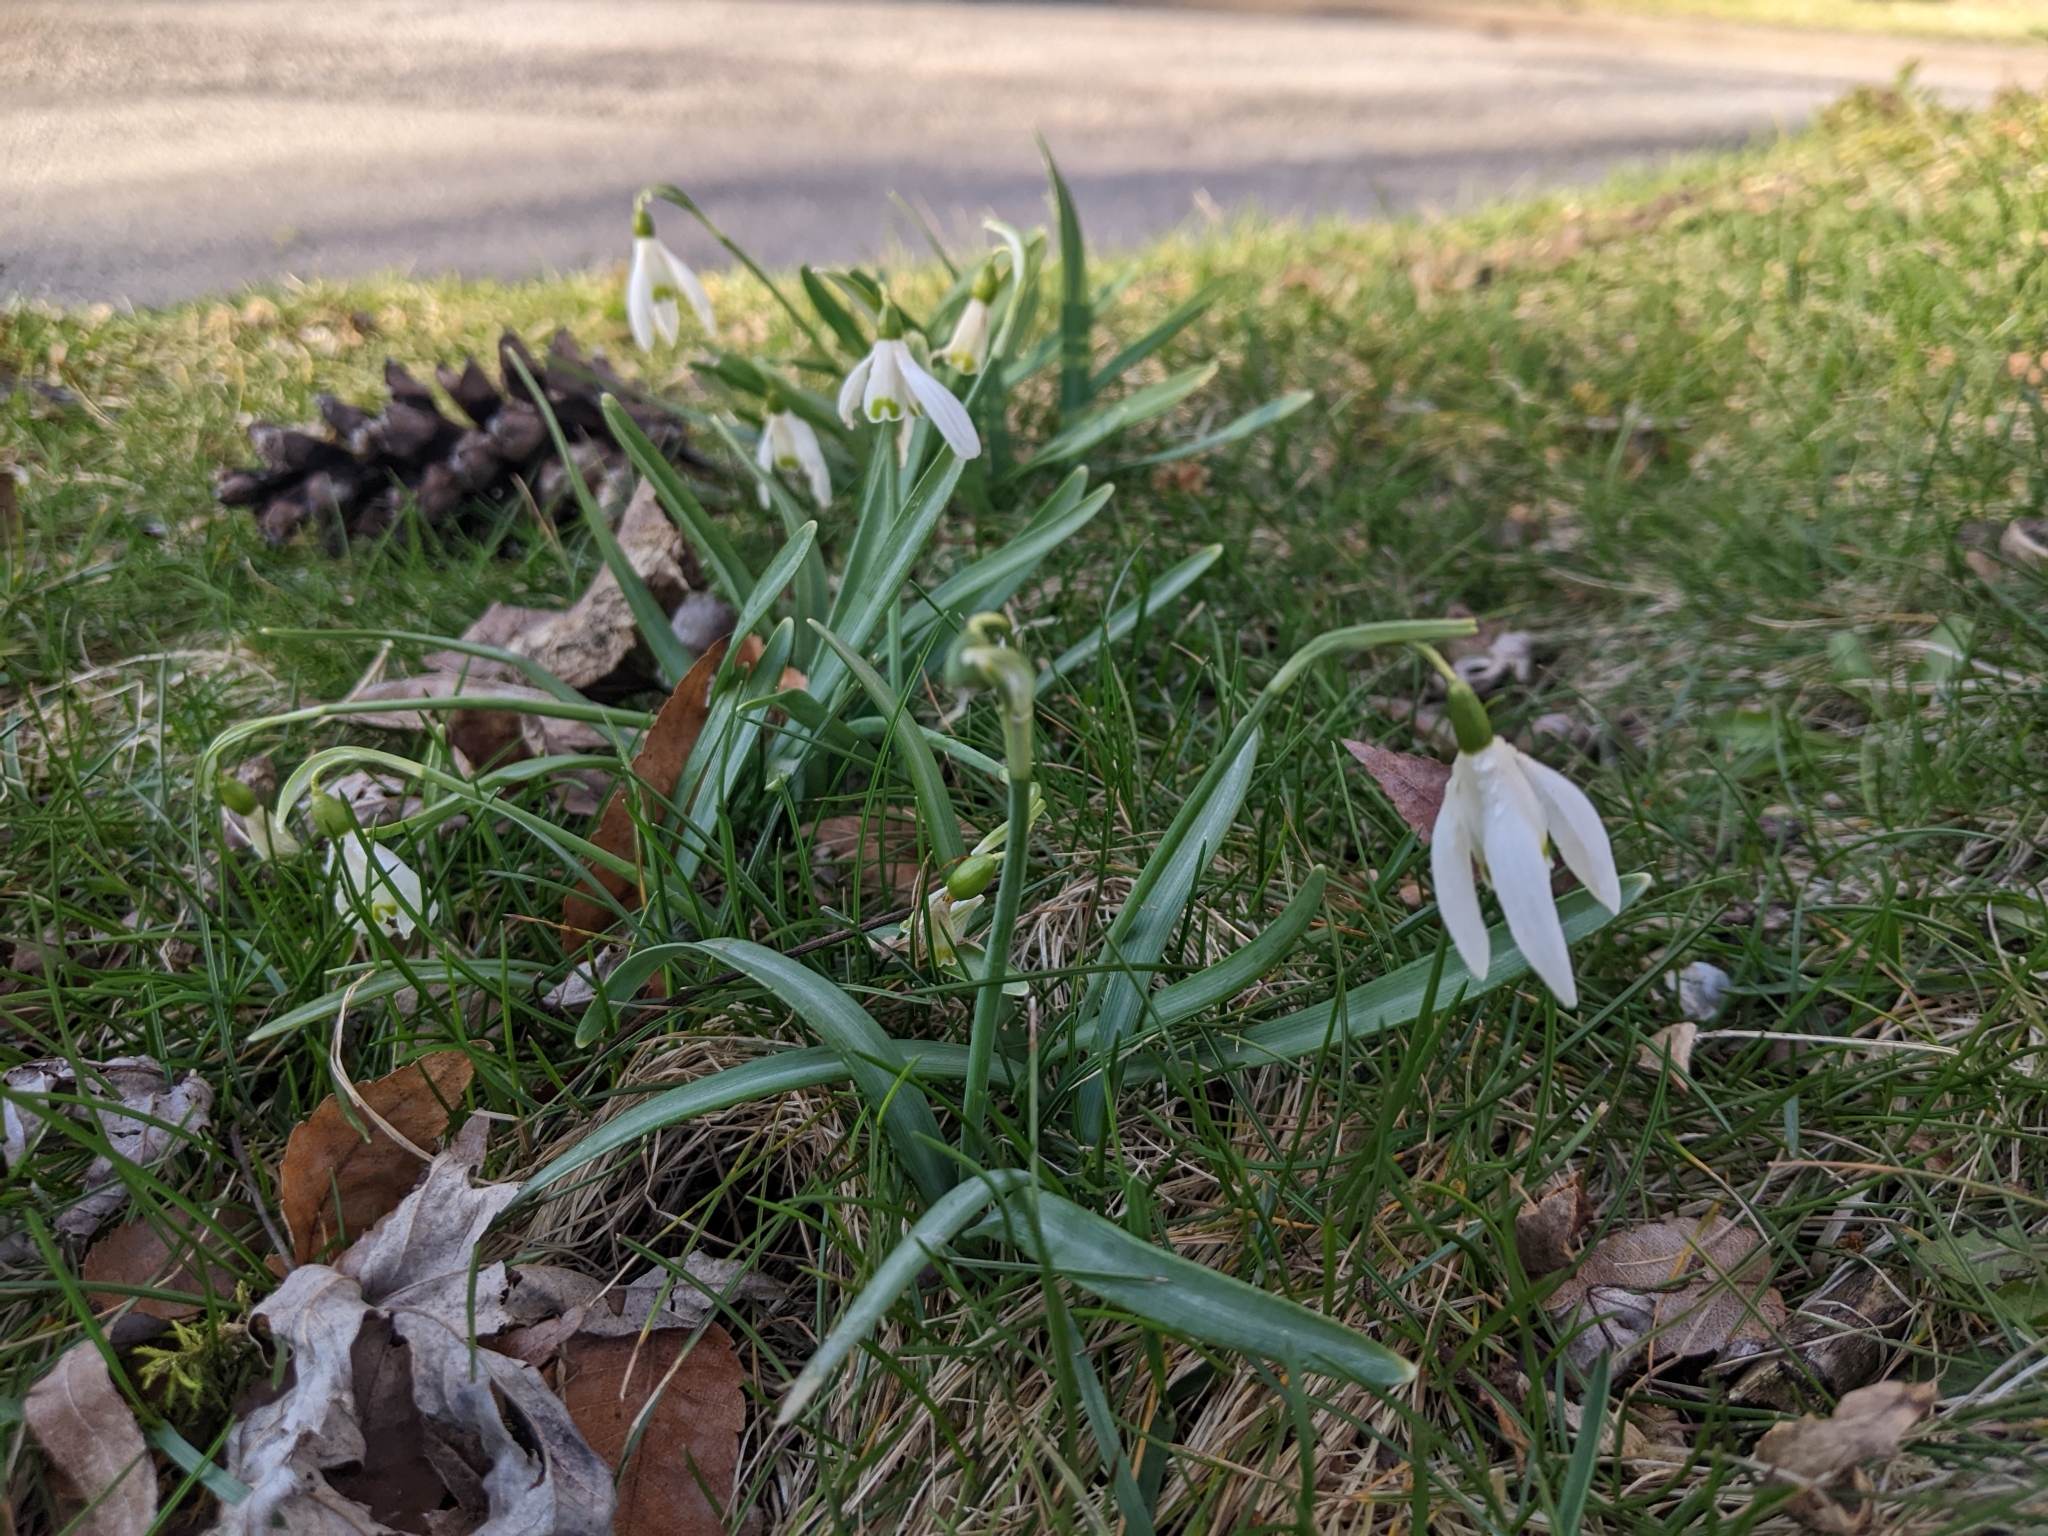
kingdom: Plantae
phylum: Tracheophyta
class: Liliopsida
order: Asparagales
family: Amaryllidaceae
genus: Galanthus
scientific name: Galanthus nivalis
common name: Snowdrop
